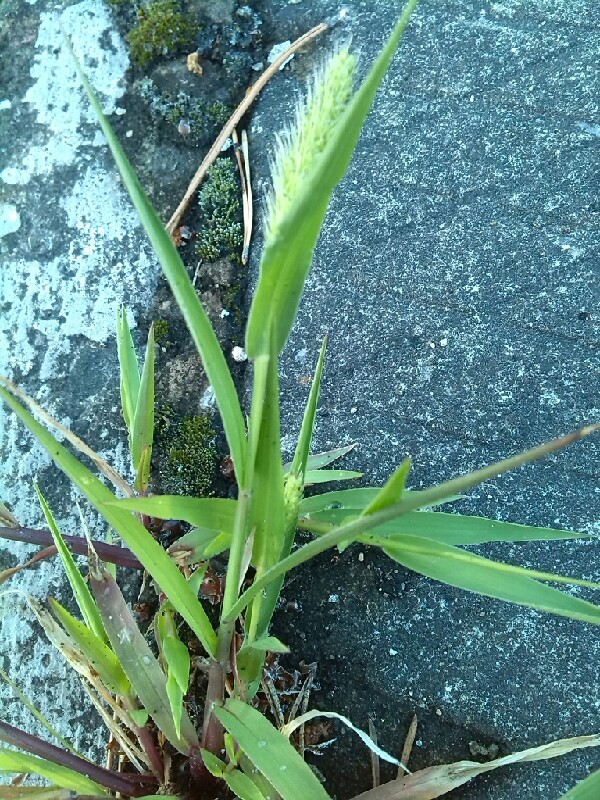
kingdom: Plantae
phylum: Tracheophyta
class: Liliopsida
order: Poales
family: Poaceae
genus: Setaria
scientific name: Setaria viridis
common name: Green bristlegrass
